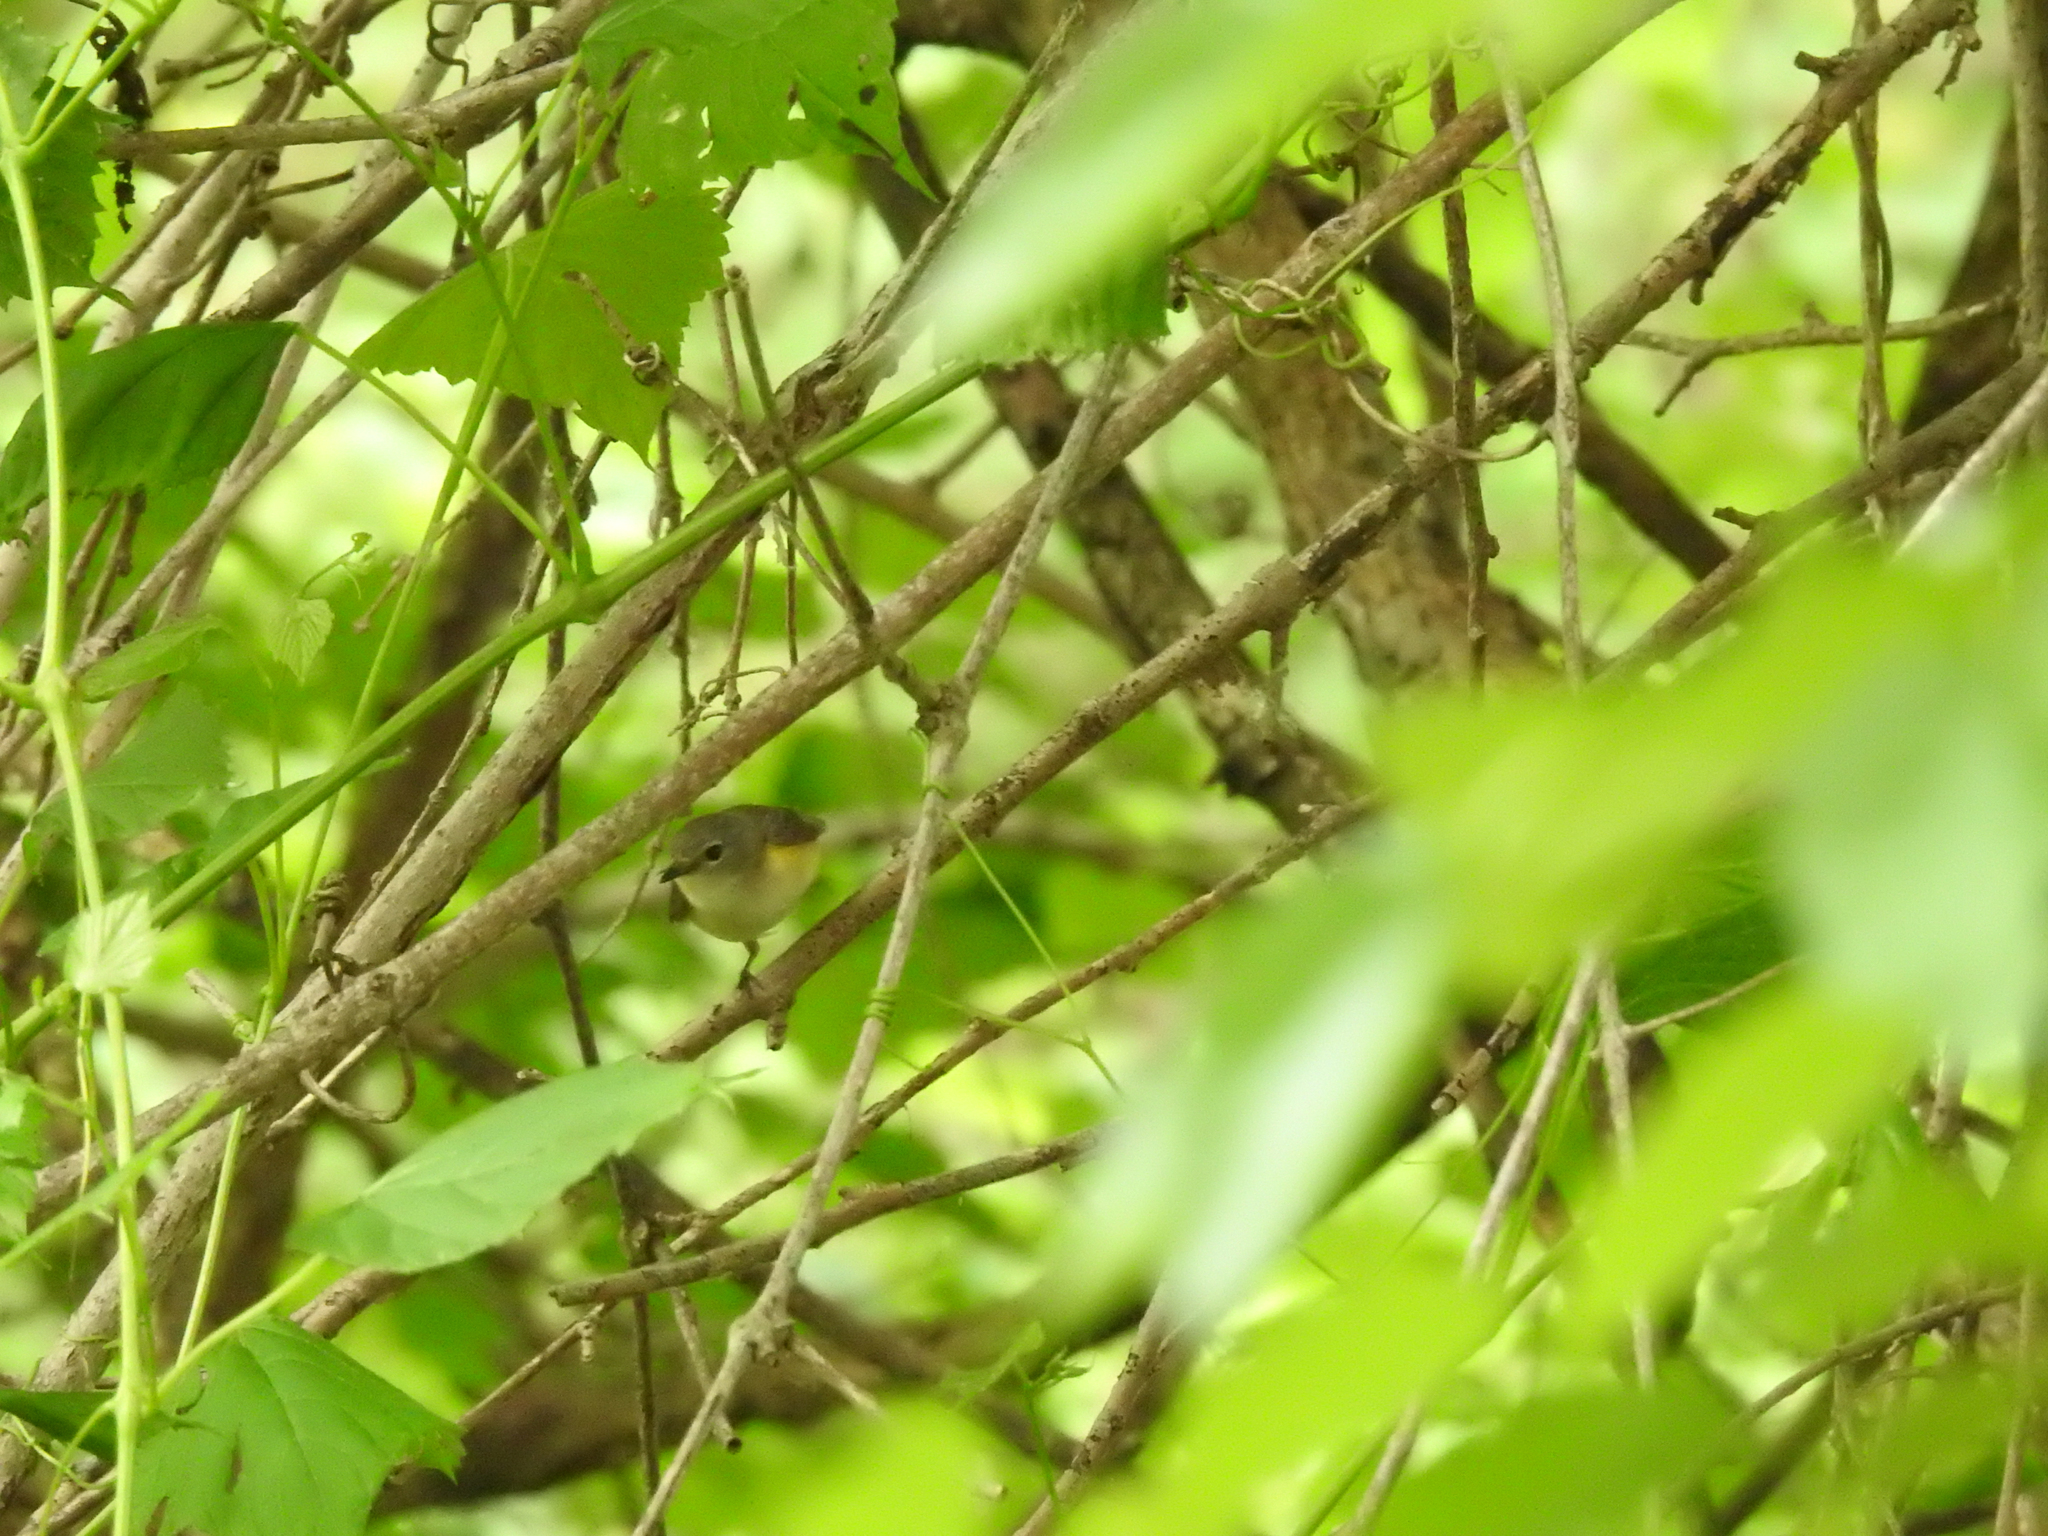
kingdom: Animalia
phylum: Chordata
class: Aves
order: Passeriformes
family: Parulidae
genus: Setophaga
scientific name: Setophaga ruticilla
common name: American redstart
